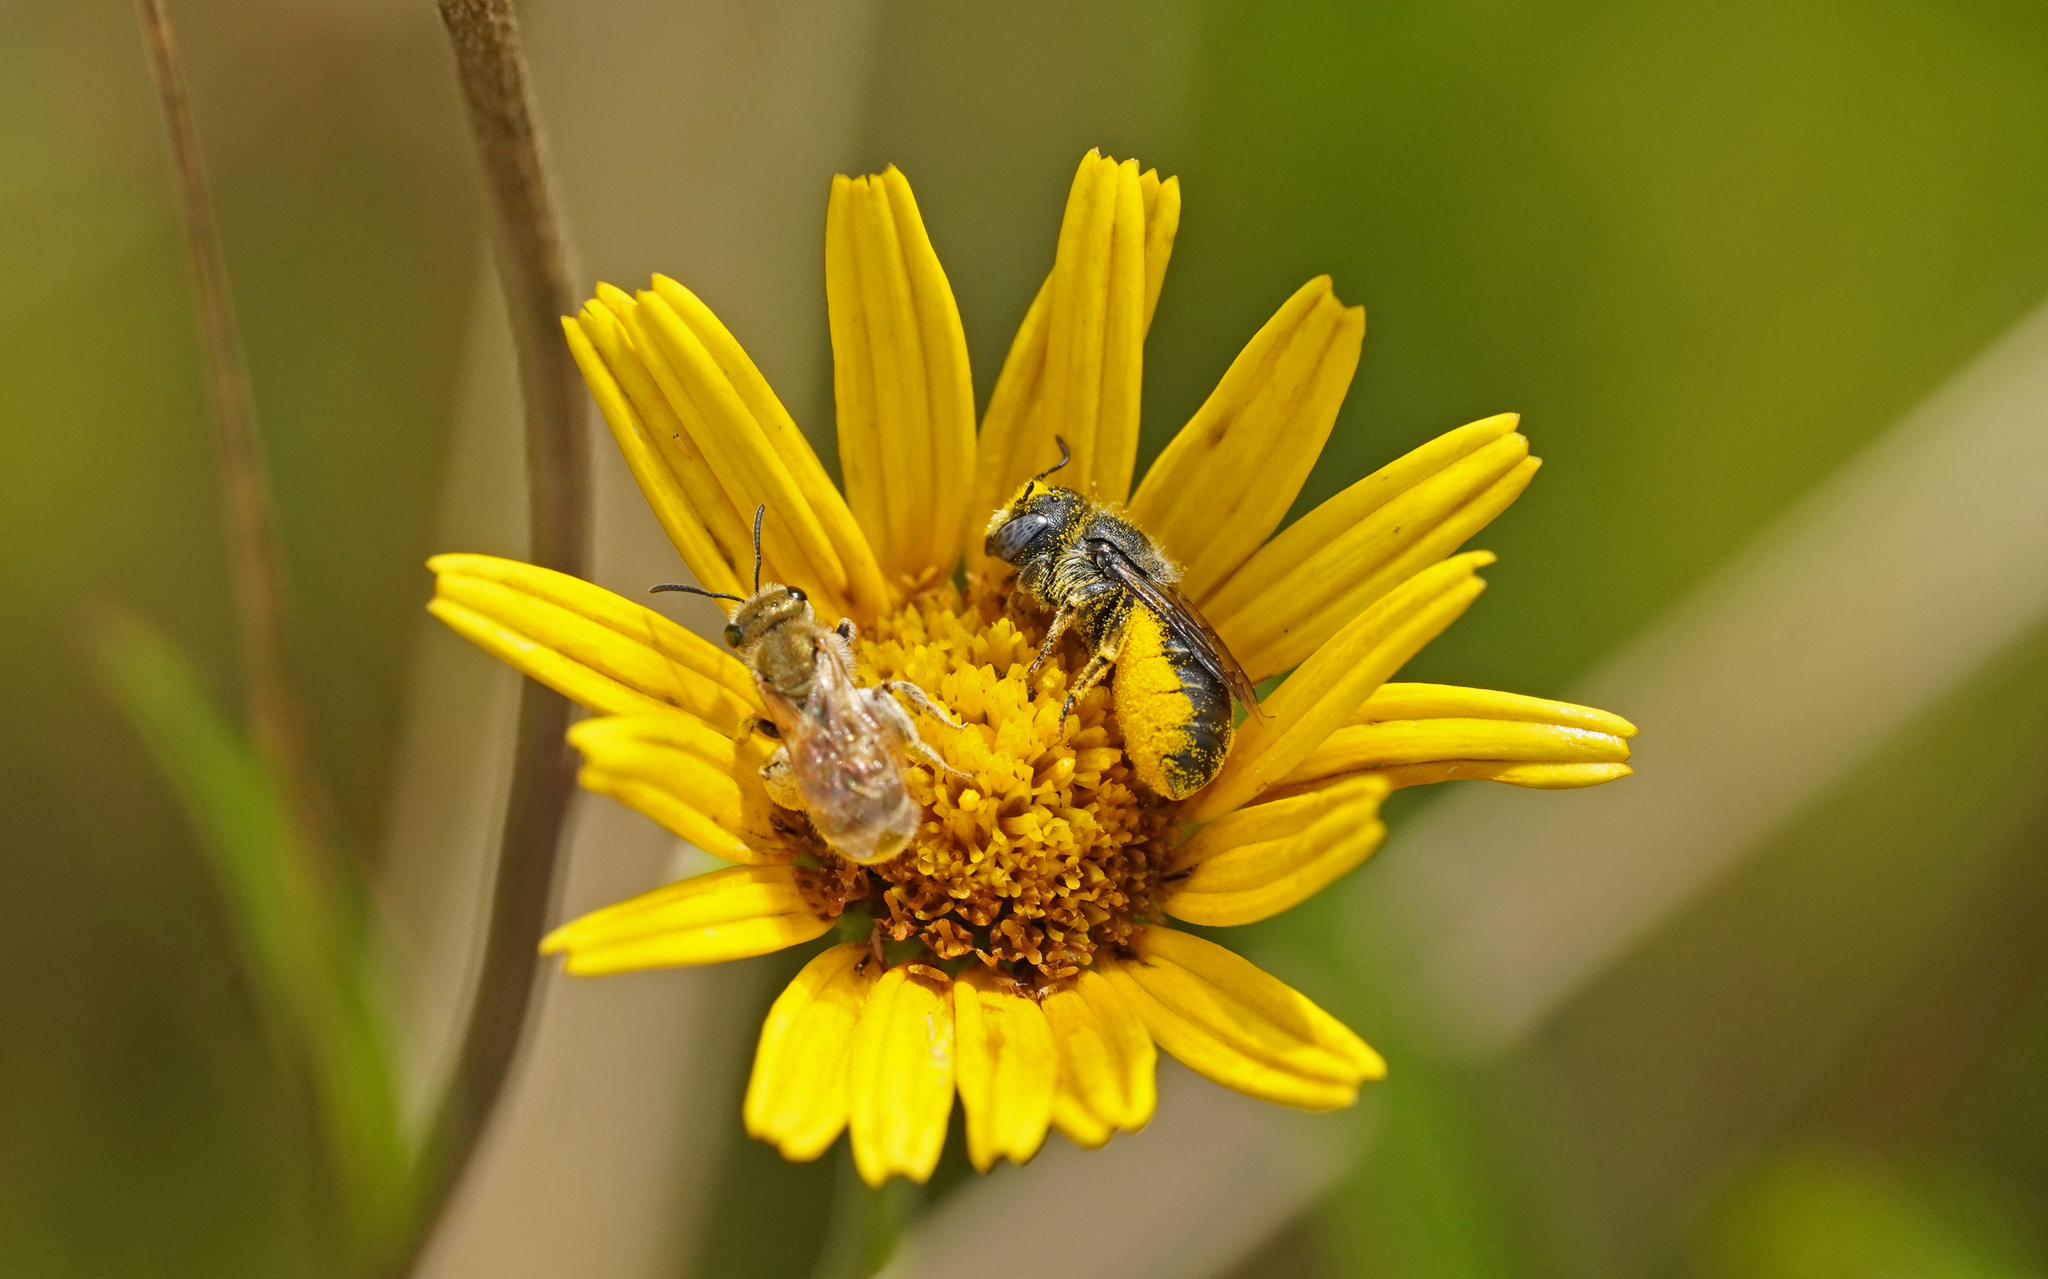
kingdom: Animalia
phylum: Arthropoda
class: Insecta
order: Hymenoptera
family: Megachilidae
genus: Osmia
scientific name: Osmia spinulosa
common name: Spined mason bee
